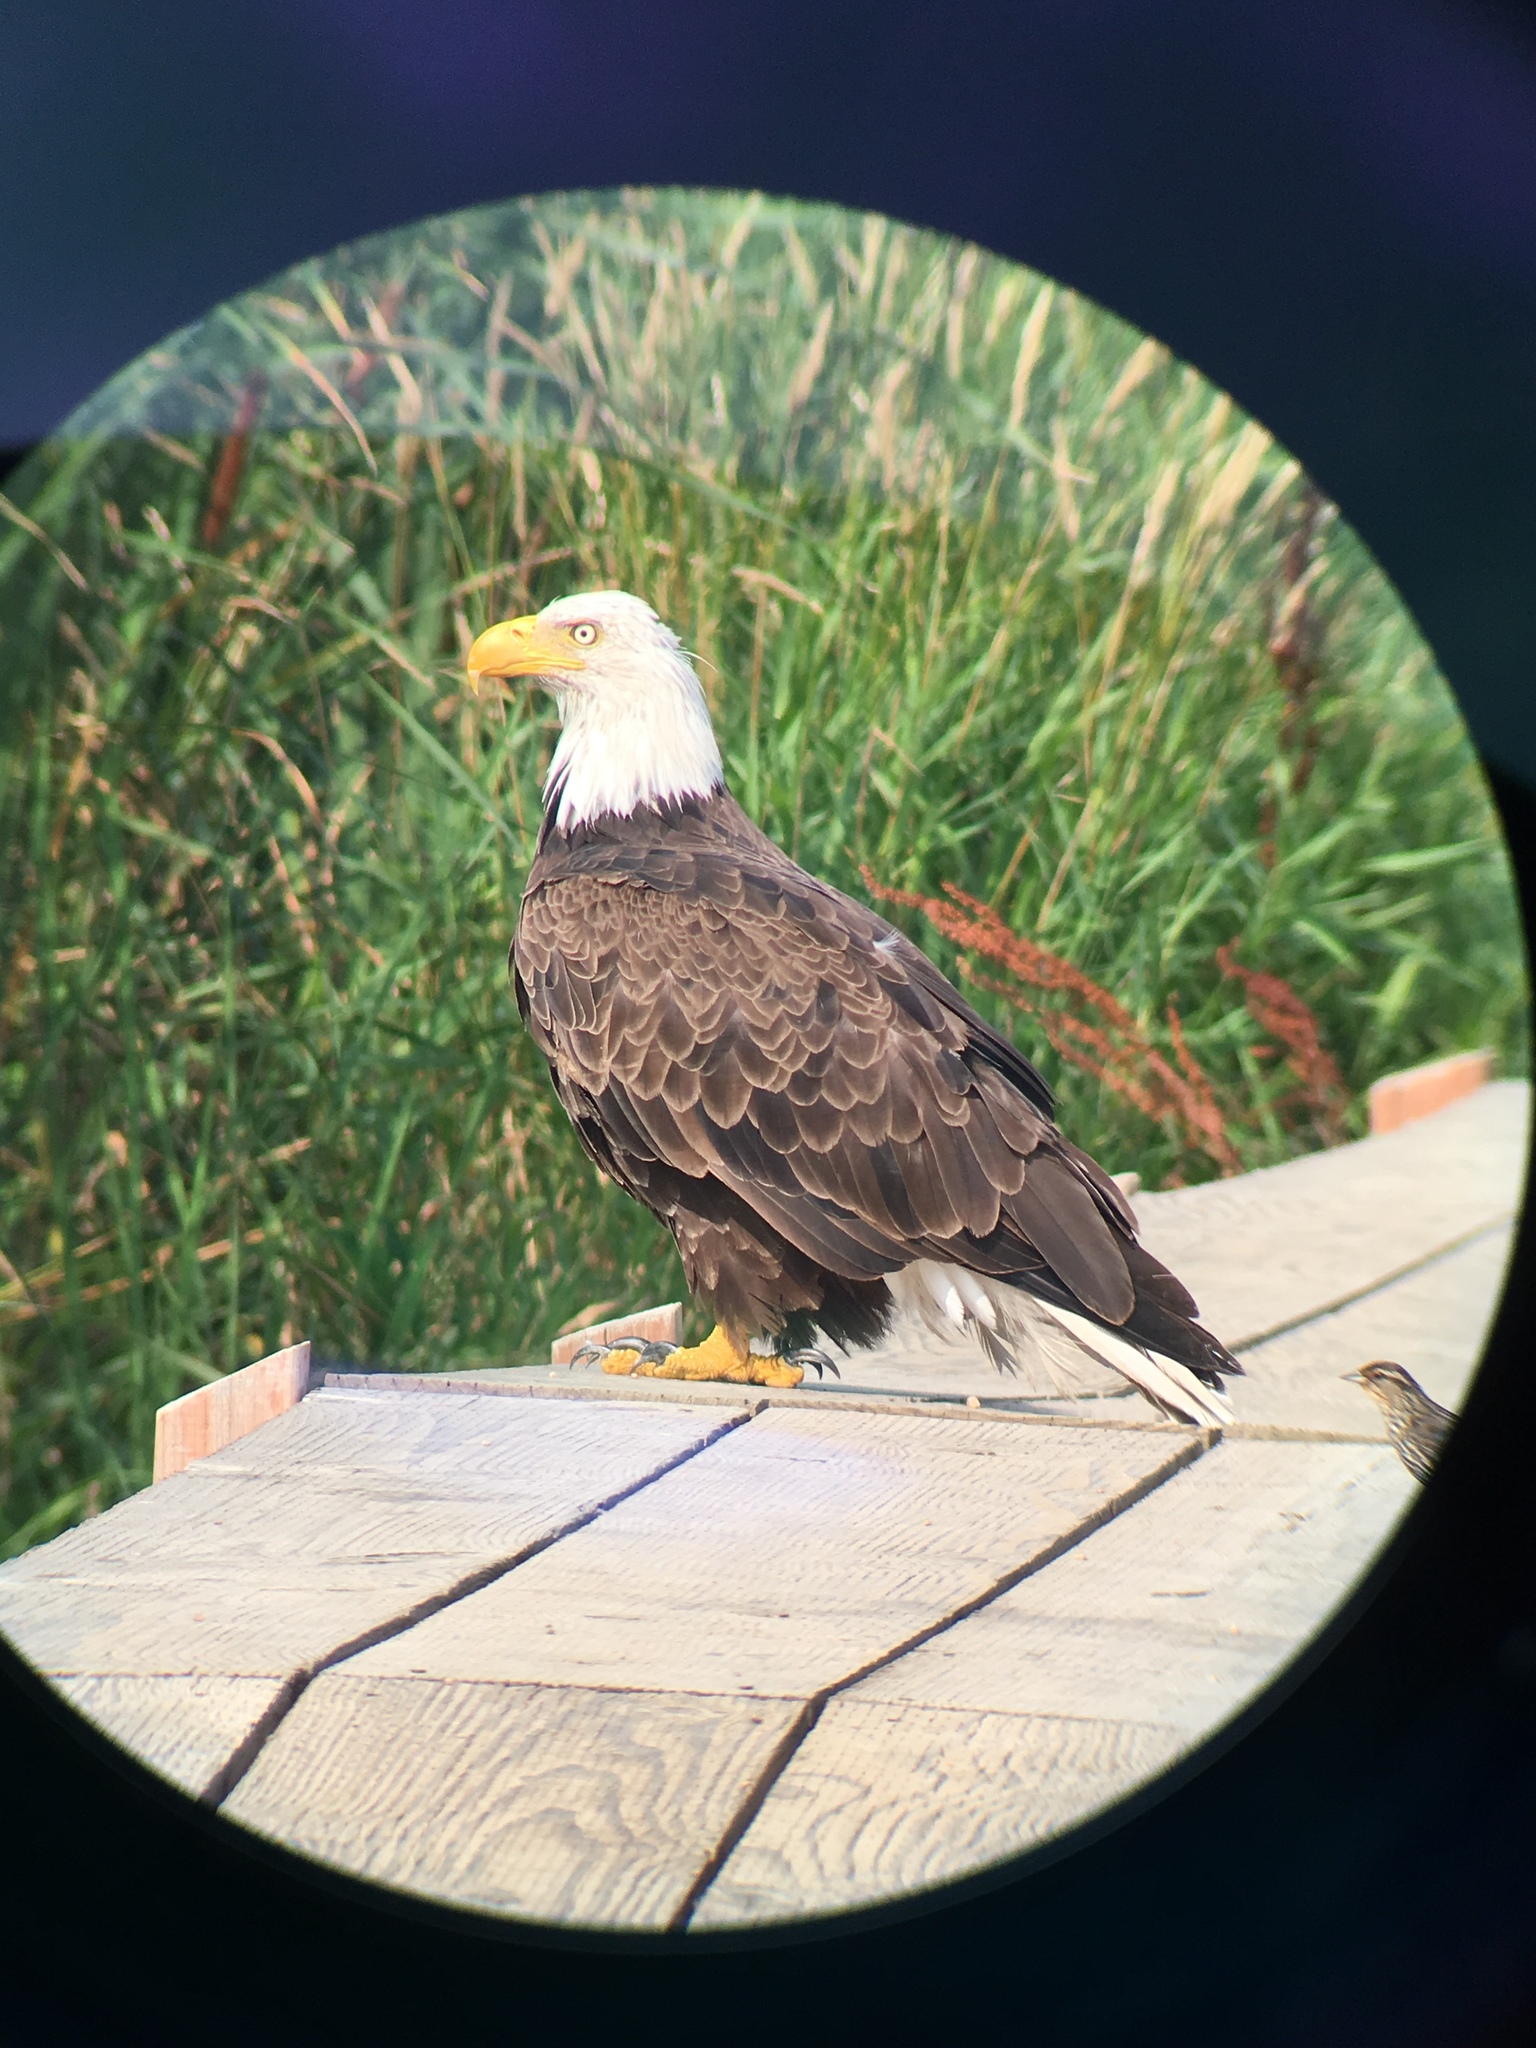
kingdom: Animalia
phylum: Chordata
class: Aves
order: Accipitriformes
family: Accipitridae
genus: Haliaeetus
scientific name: Haliaeetus leucocephalus
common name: Bald eagle
